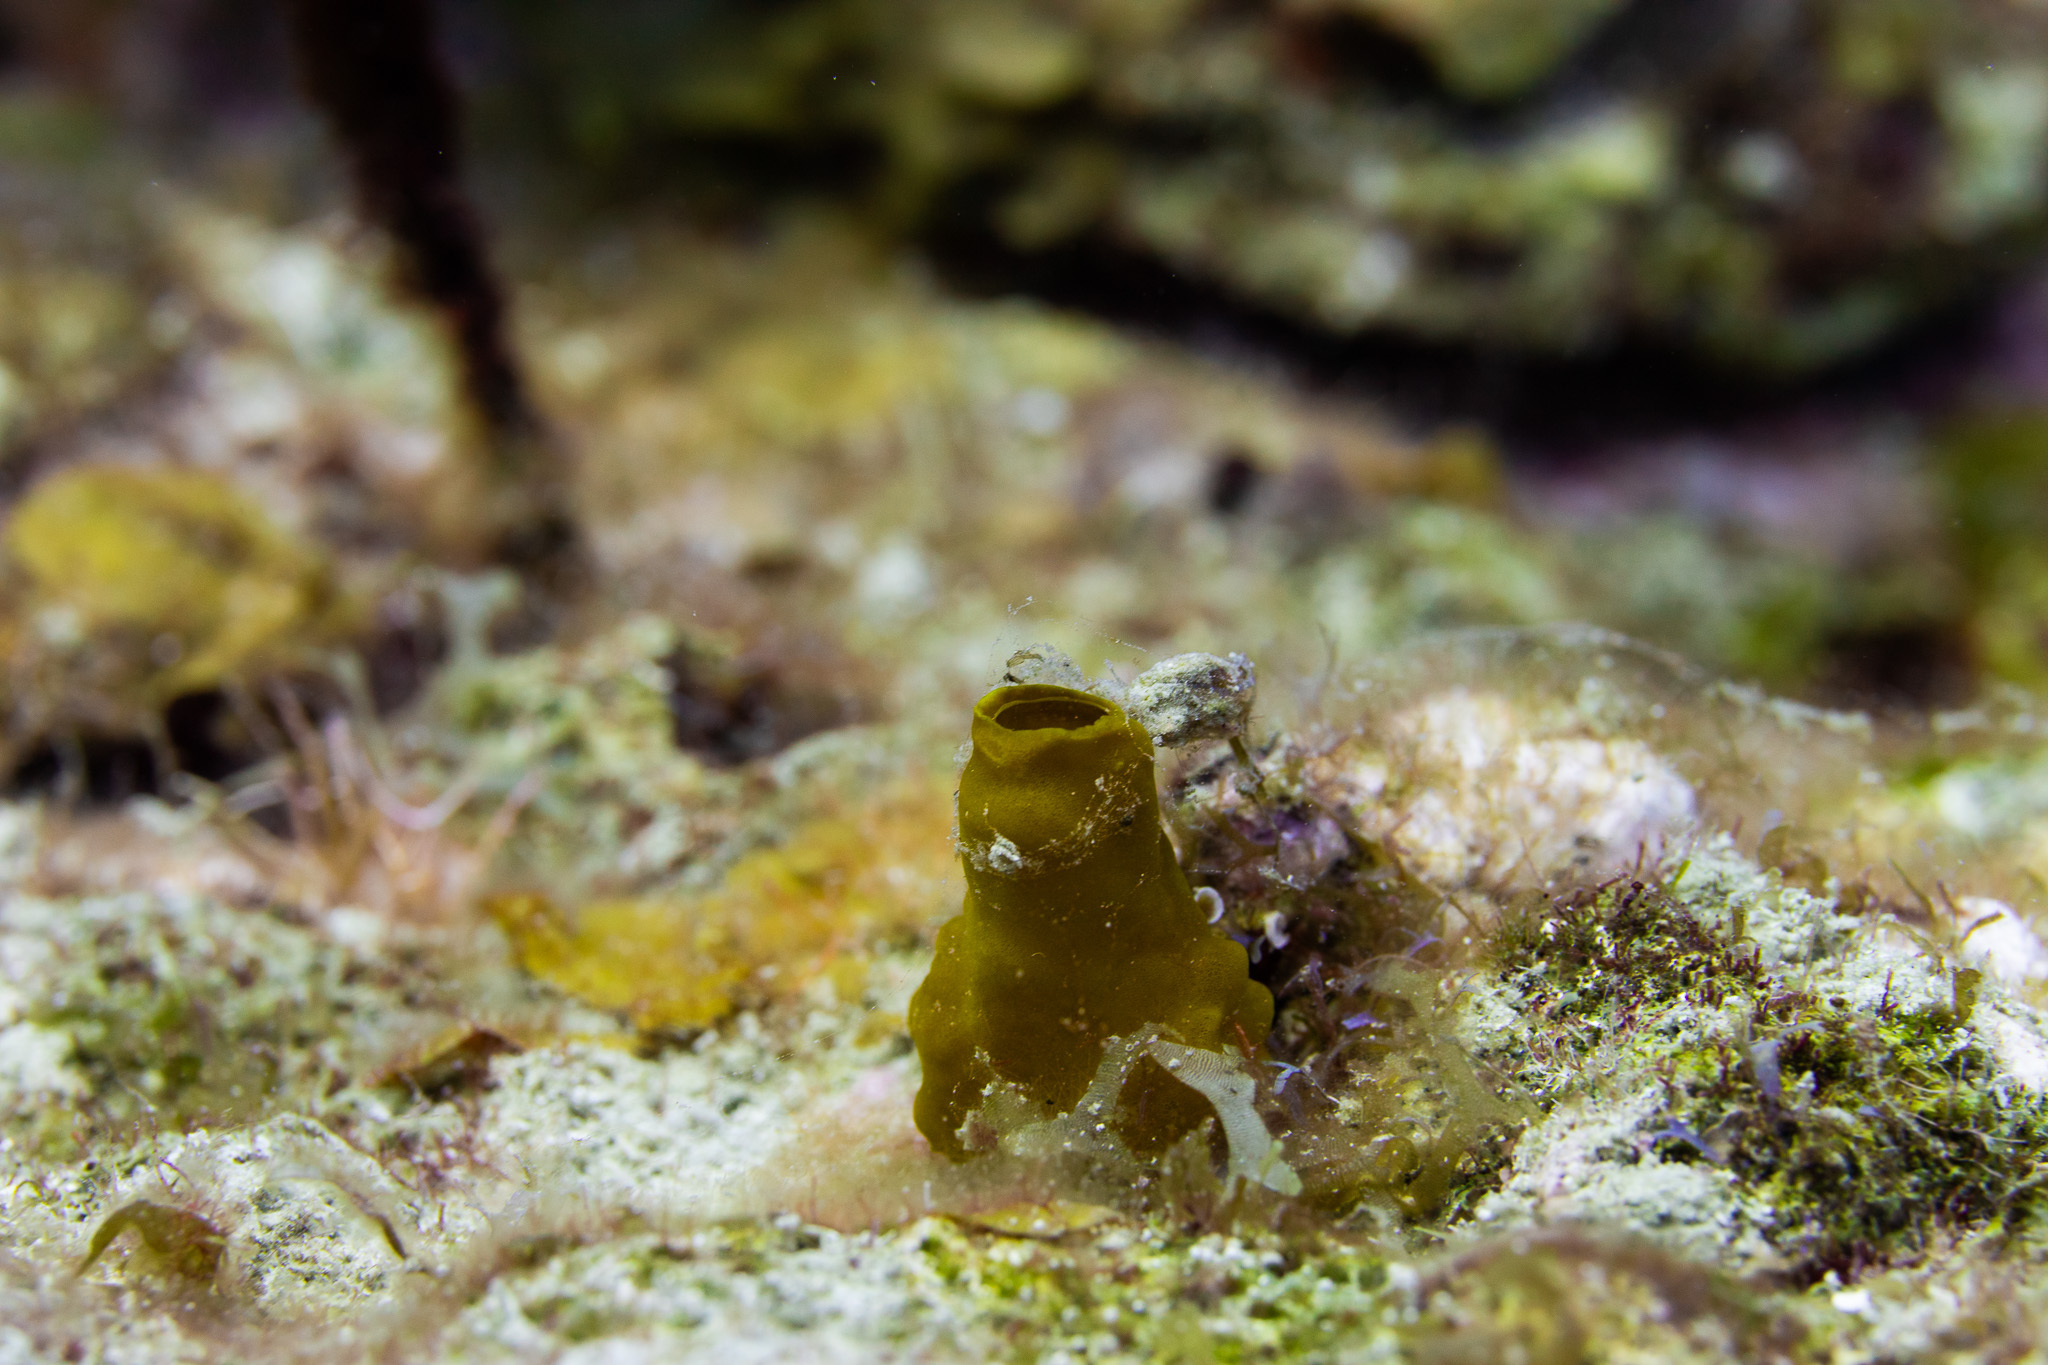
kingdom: Animalia
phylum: Porifera
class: Demospongiae
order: Haplosclerida
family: Phloeodictyidae
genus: Siphonodictyon
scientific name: Siphonodictyon coralliphagum
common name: Coral-eating boring sponge
